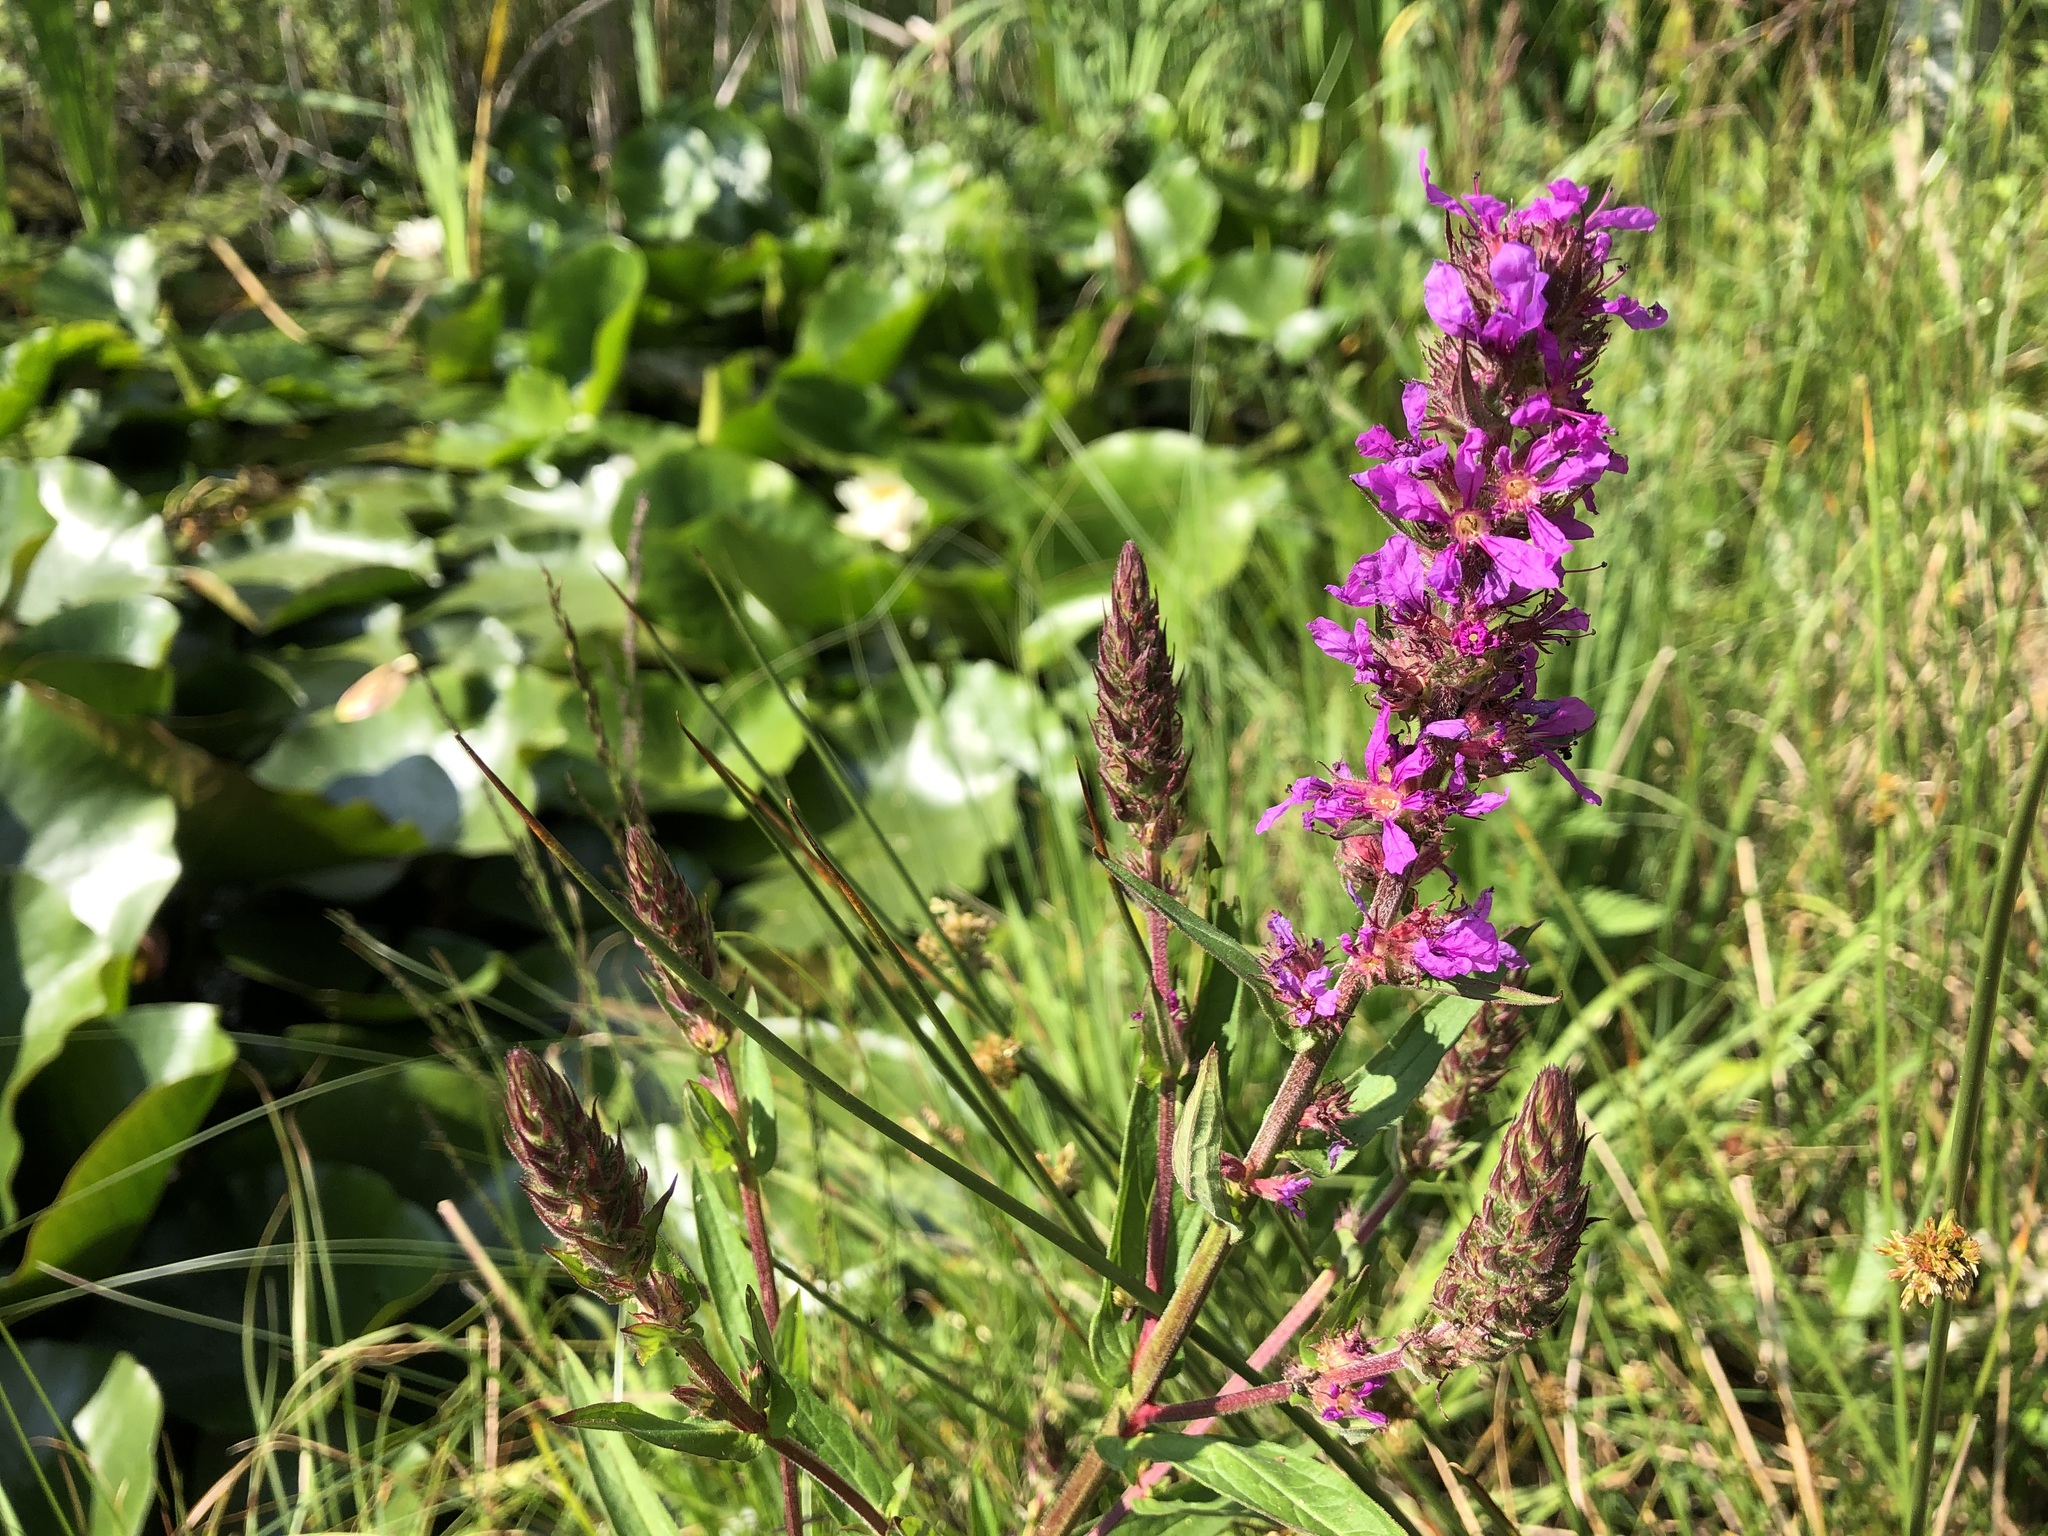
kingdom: Plantae
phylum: Tracheophyta
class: Magnoliopsida
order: Myrtales
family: Lythraceae
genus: Lythrum
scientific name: Lythrum salicaria
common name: Purple loosestrife
